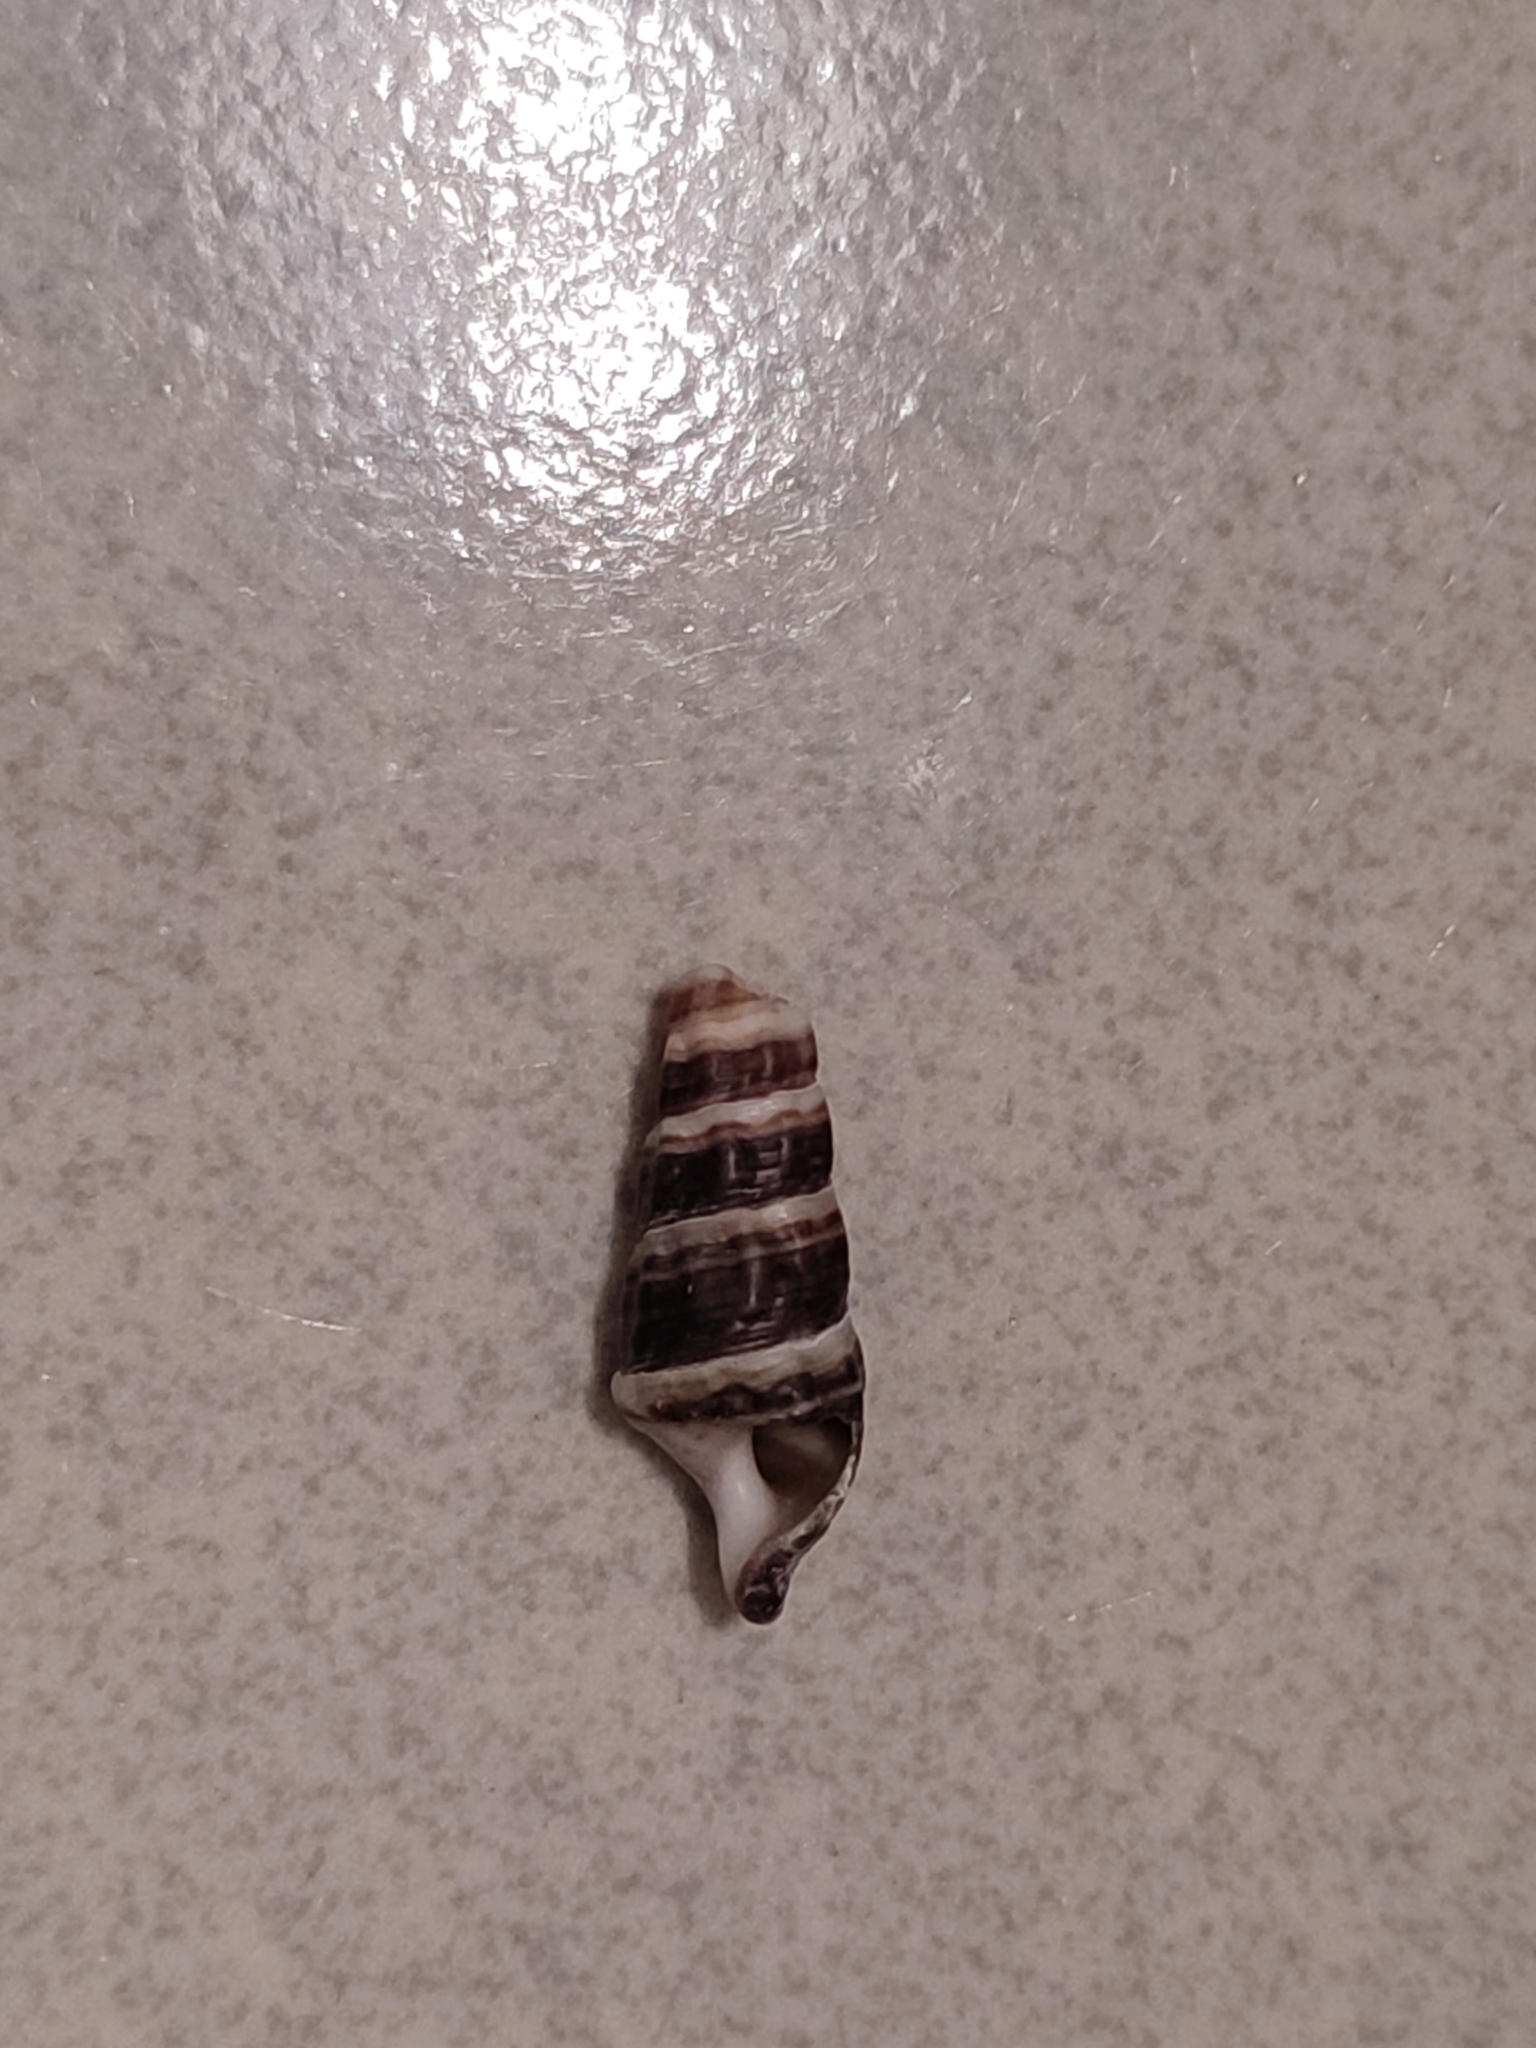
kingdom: Animalia
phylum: Mollusca
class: Gastropoda
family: Batillariidae
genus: Batillaria
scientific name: Batillaria zonalis
